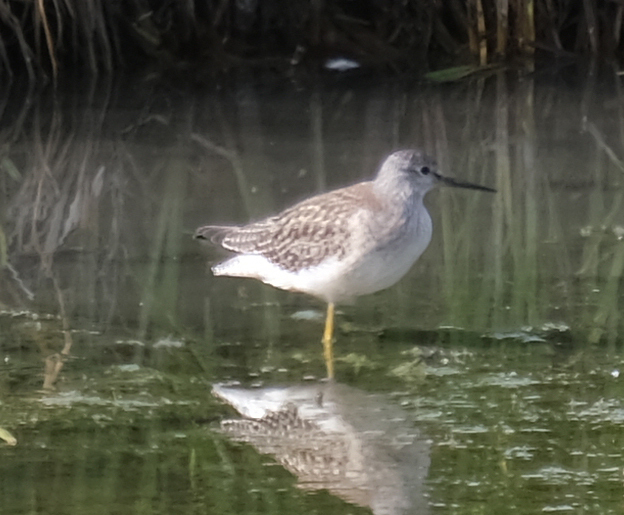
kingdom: Animalia
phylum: Chordata
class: Aves
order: Charadriiformes
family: Scolopacidae
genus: Tringa
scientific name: Tringa melanoleuca
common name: Greater yellowlegs
